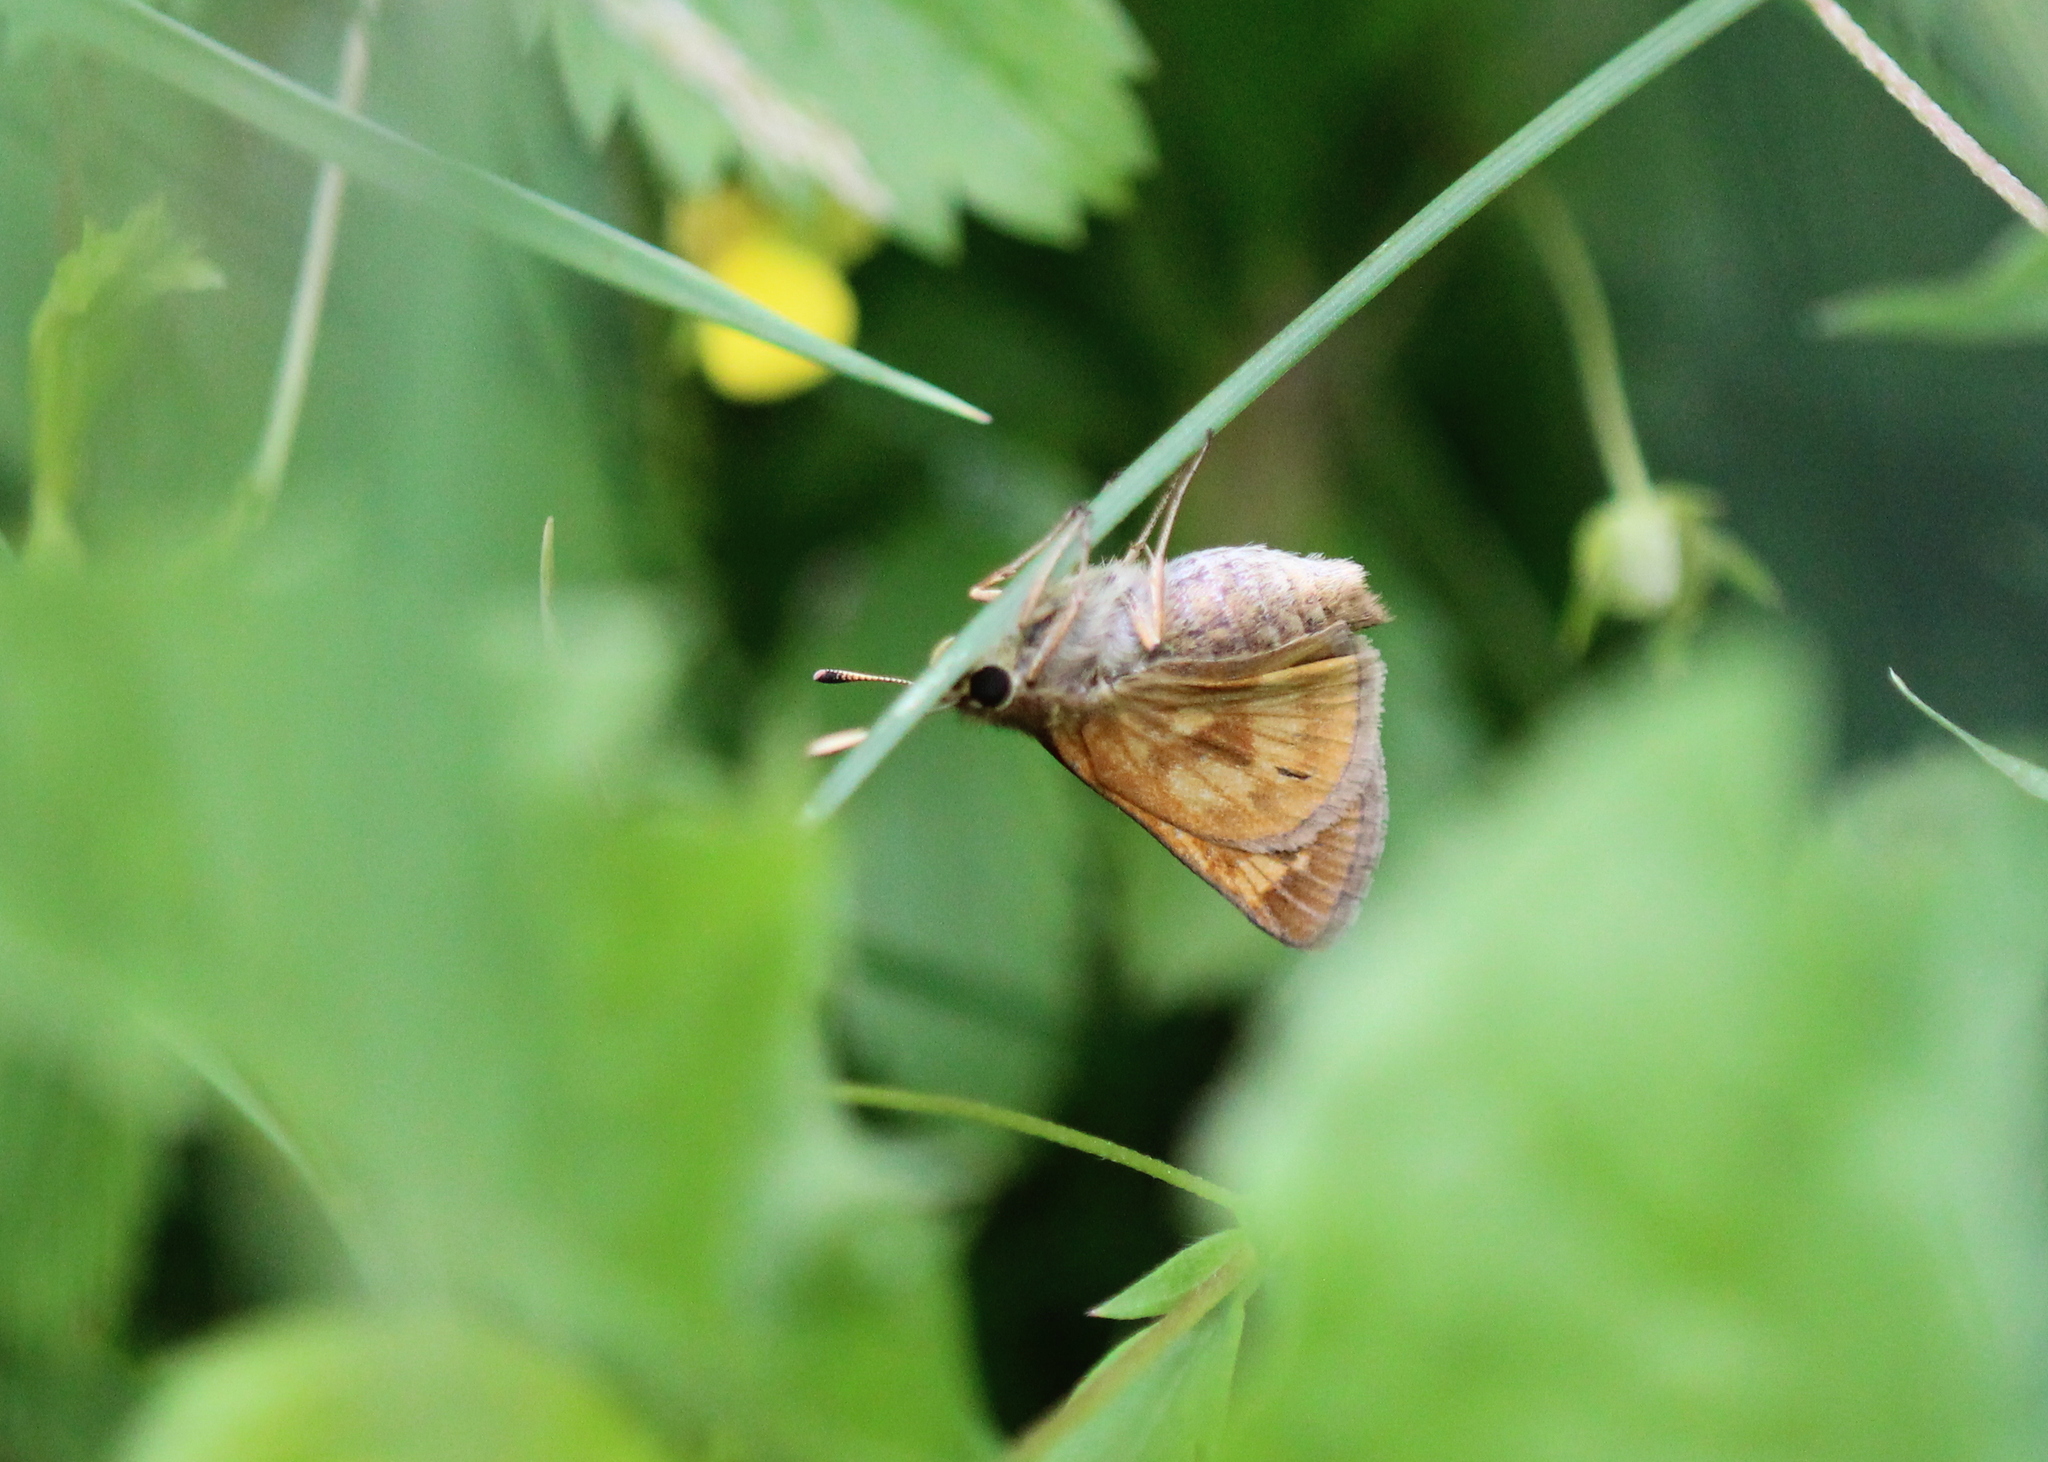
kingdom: Animalia
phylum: Arthropoda
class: Insecta
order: Lepidoptera
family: Hesperiidae
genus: Polites
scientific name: Polites mystic
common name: Long dash
